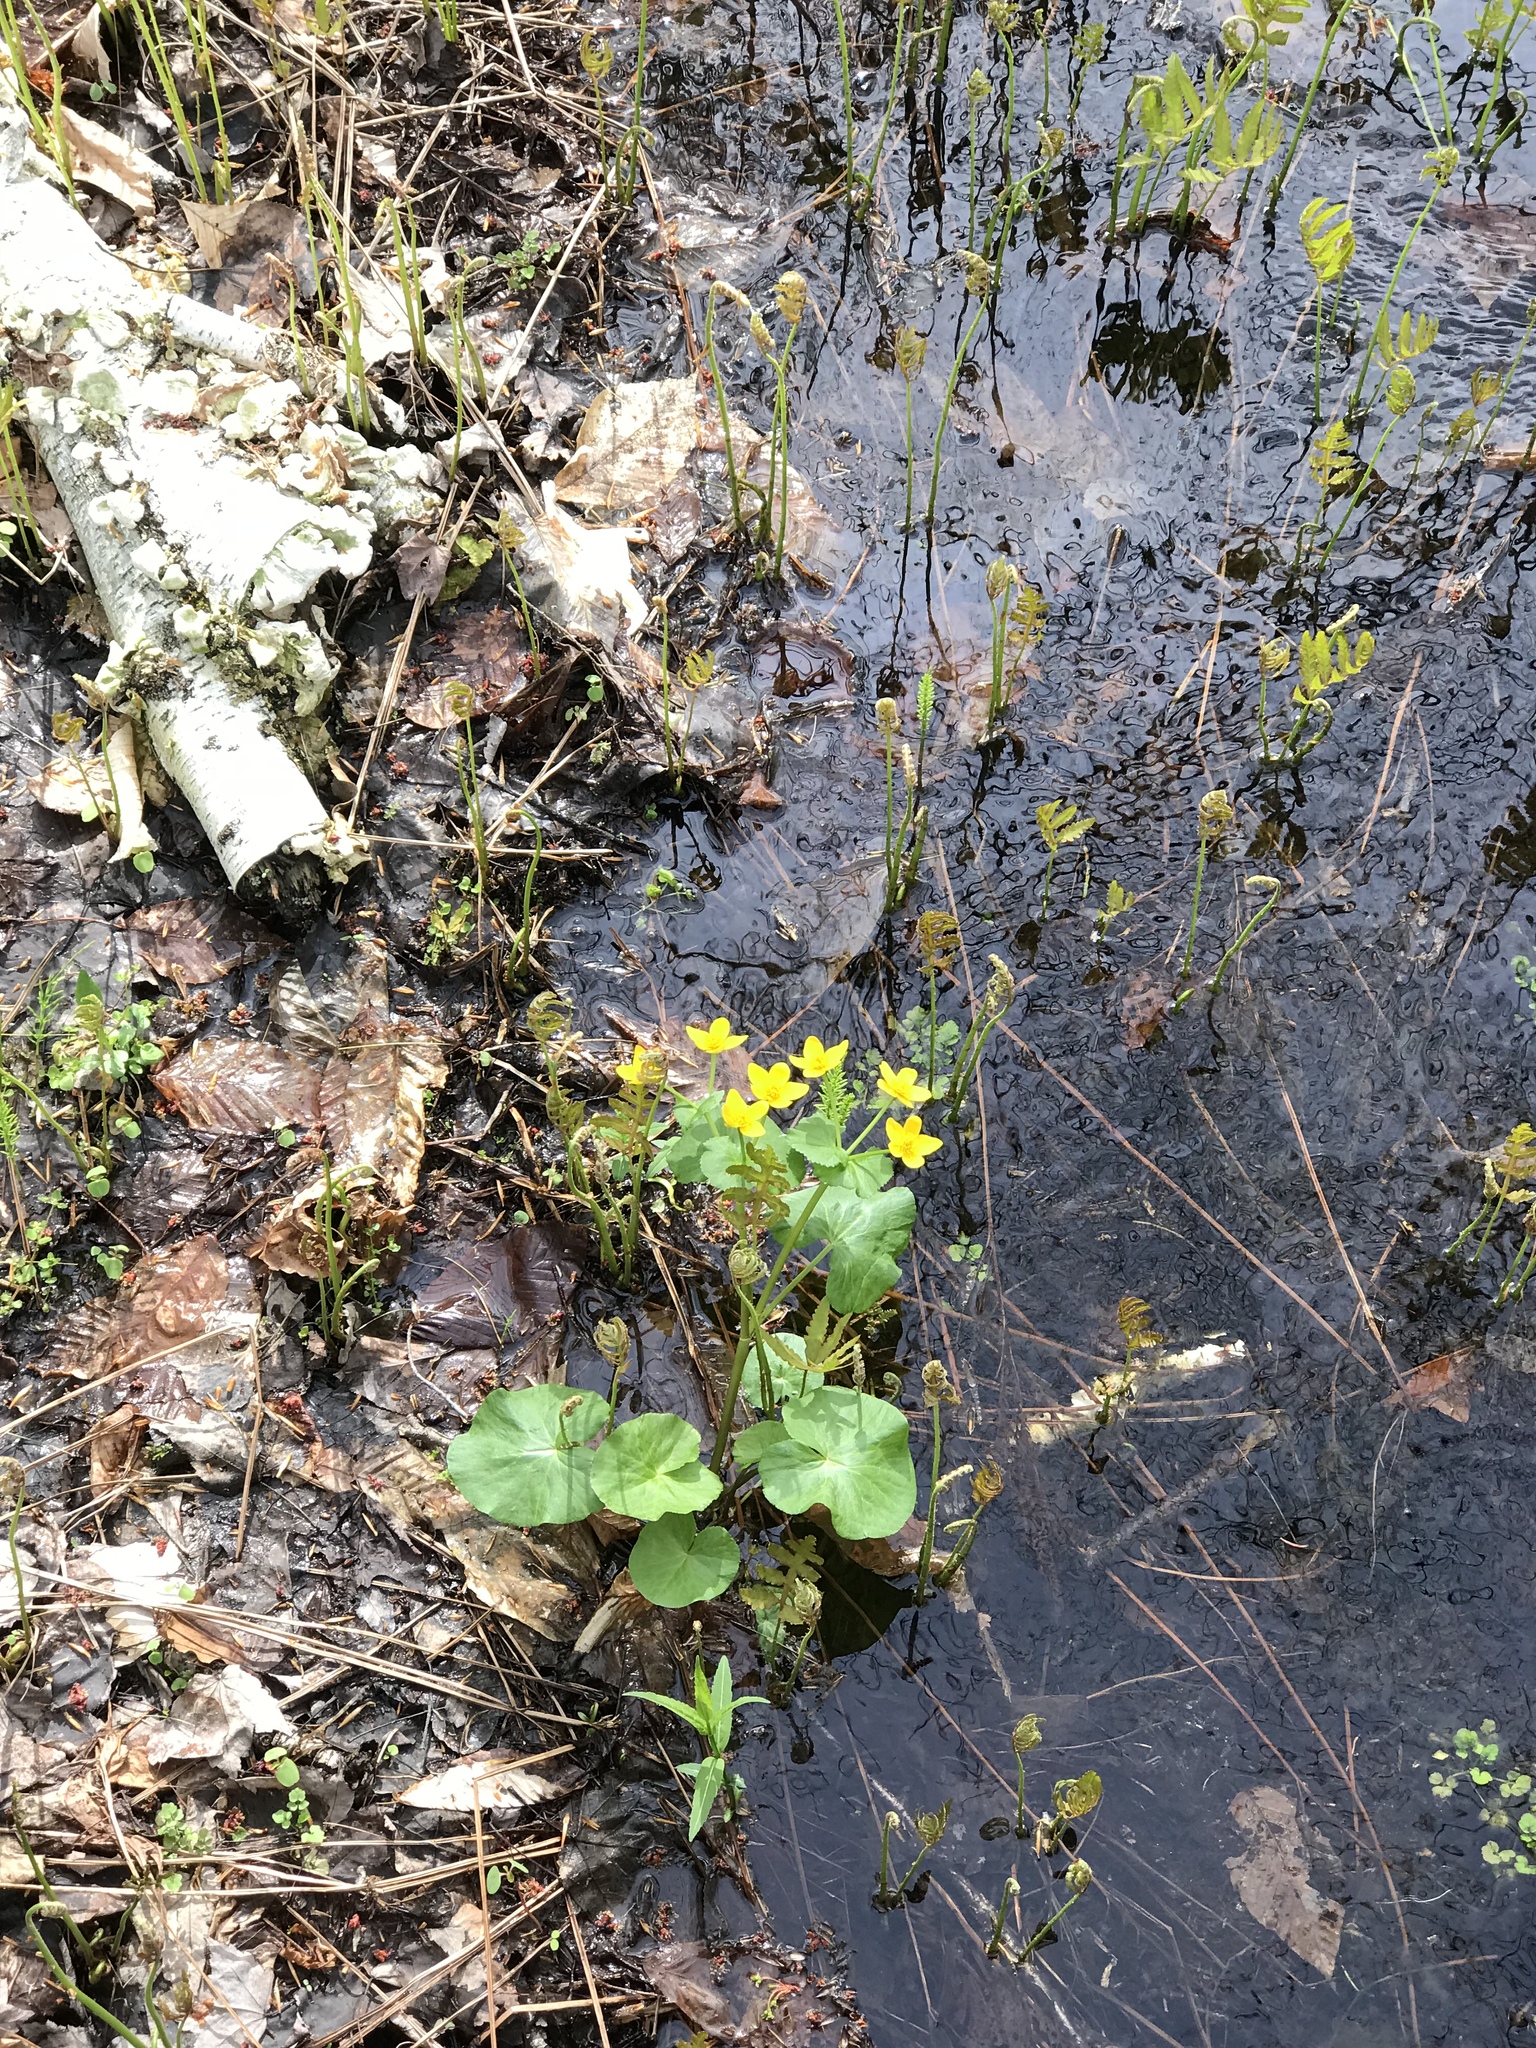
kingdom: Plantae
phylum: Tracheophyta
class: Magnoliopsida
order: Ranunculales
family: Ranunculaceae
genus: Caltha
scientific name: Caltha palustris
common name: Marsh marigold
